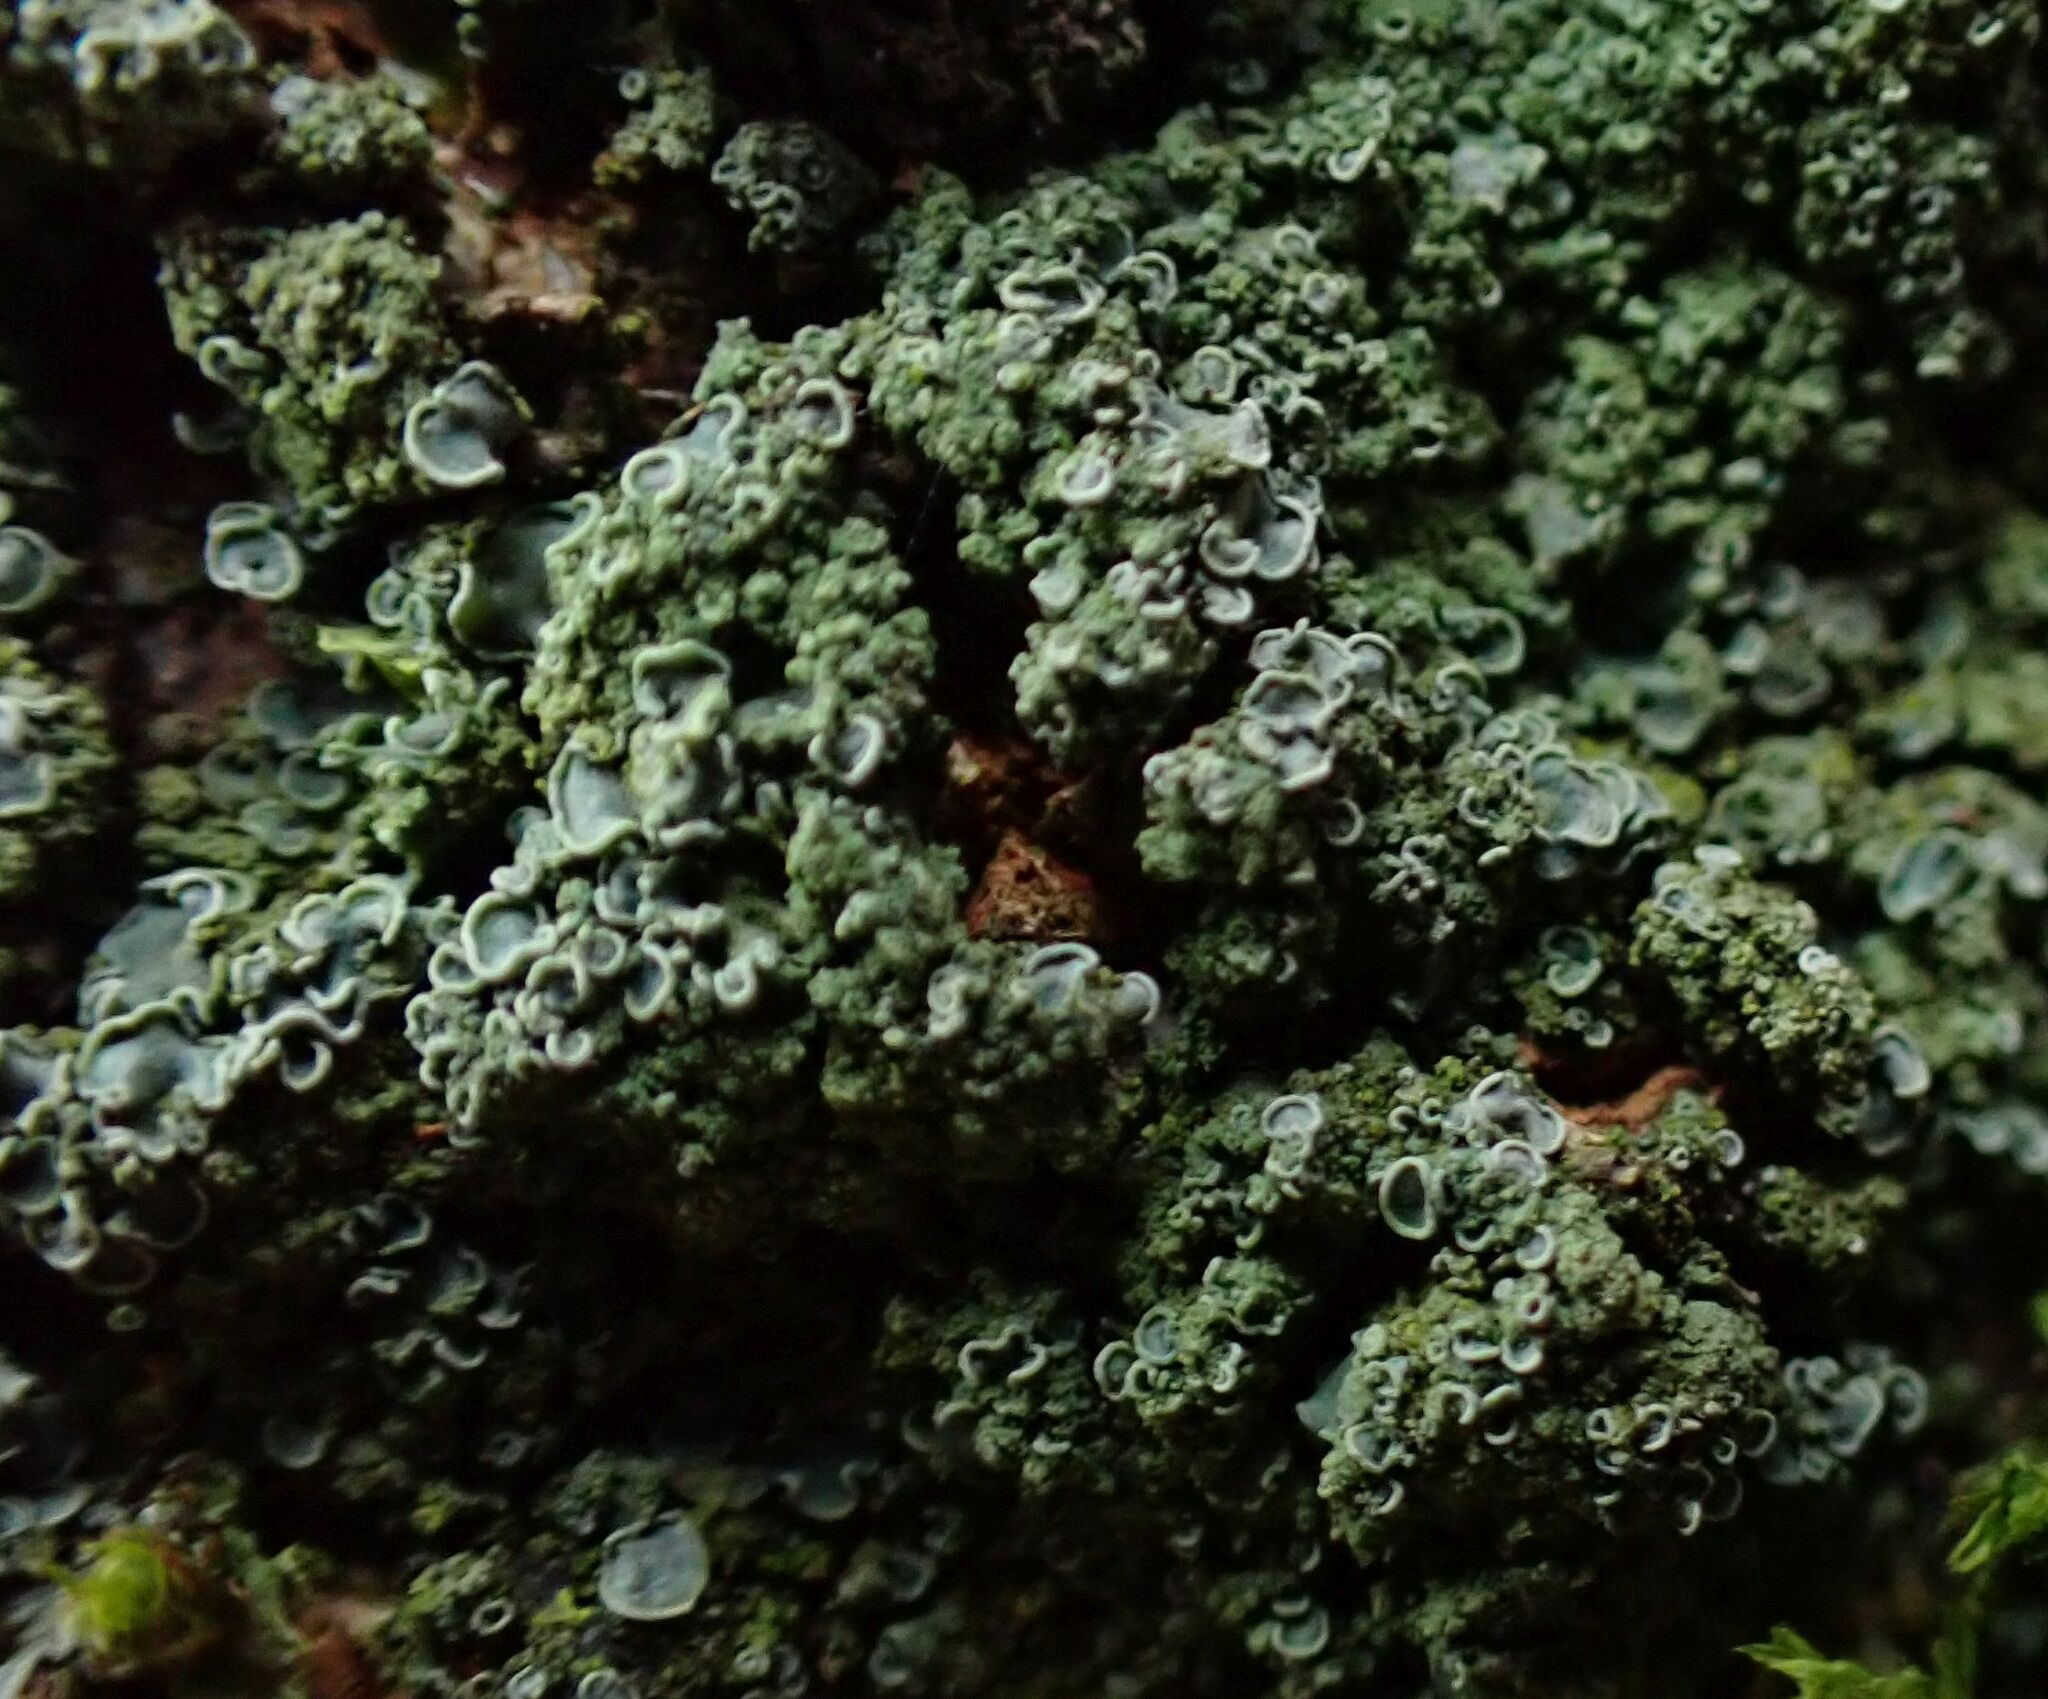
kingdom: Fungi
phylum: Ascomycota
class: Eurotiomycetes
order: Verrucariales
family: Verrucariaceae
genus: Normandina
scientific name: Normandina pulchella
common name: Elf ears lichen
